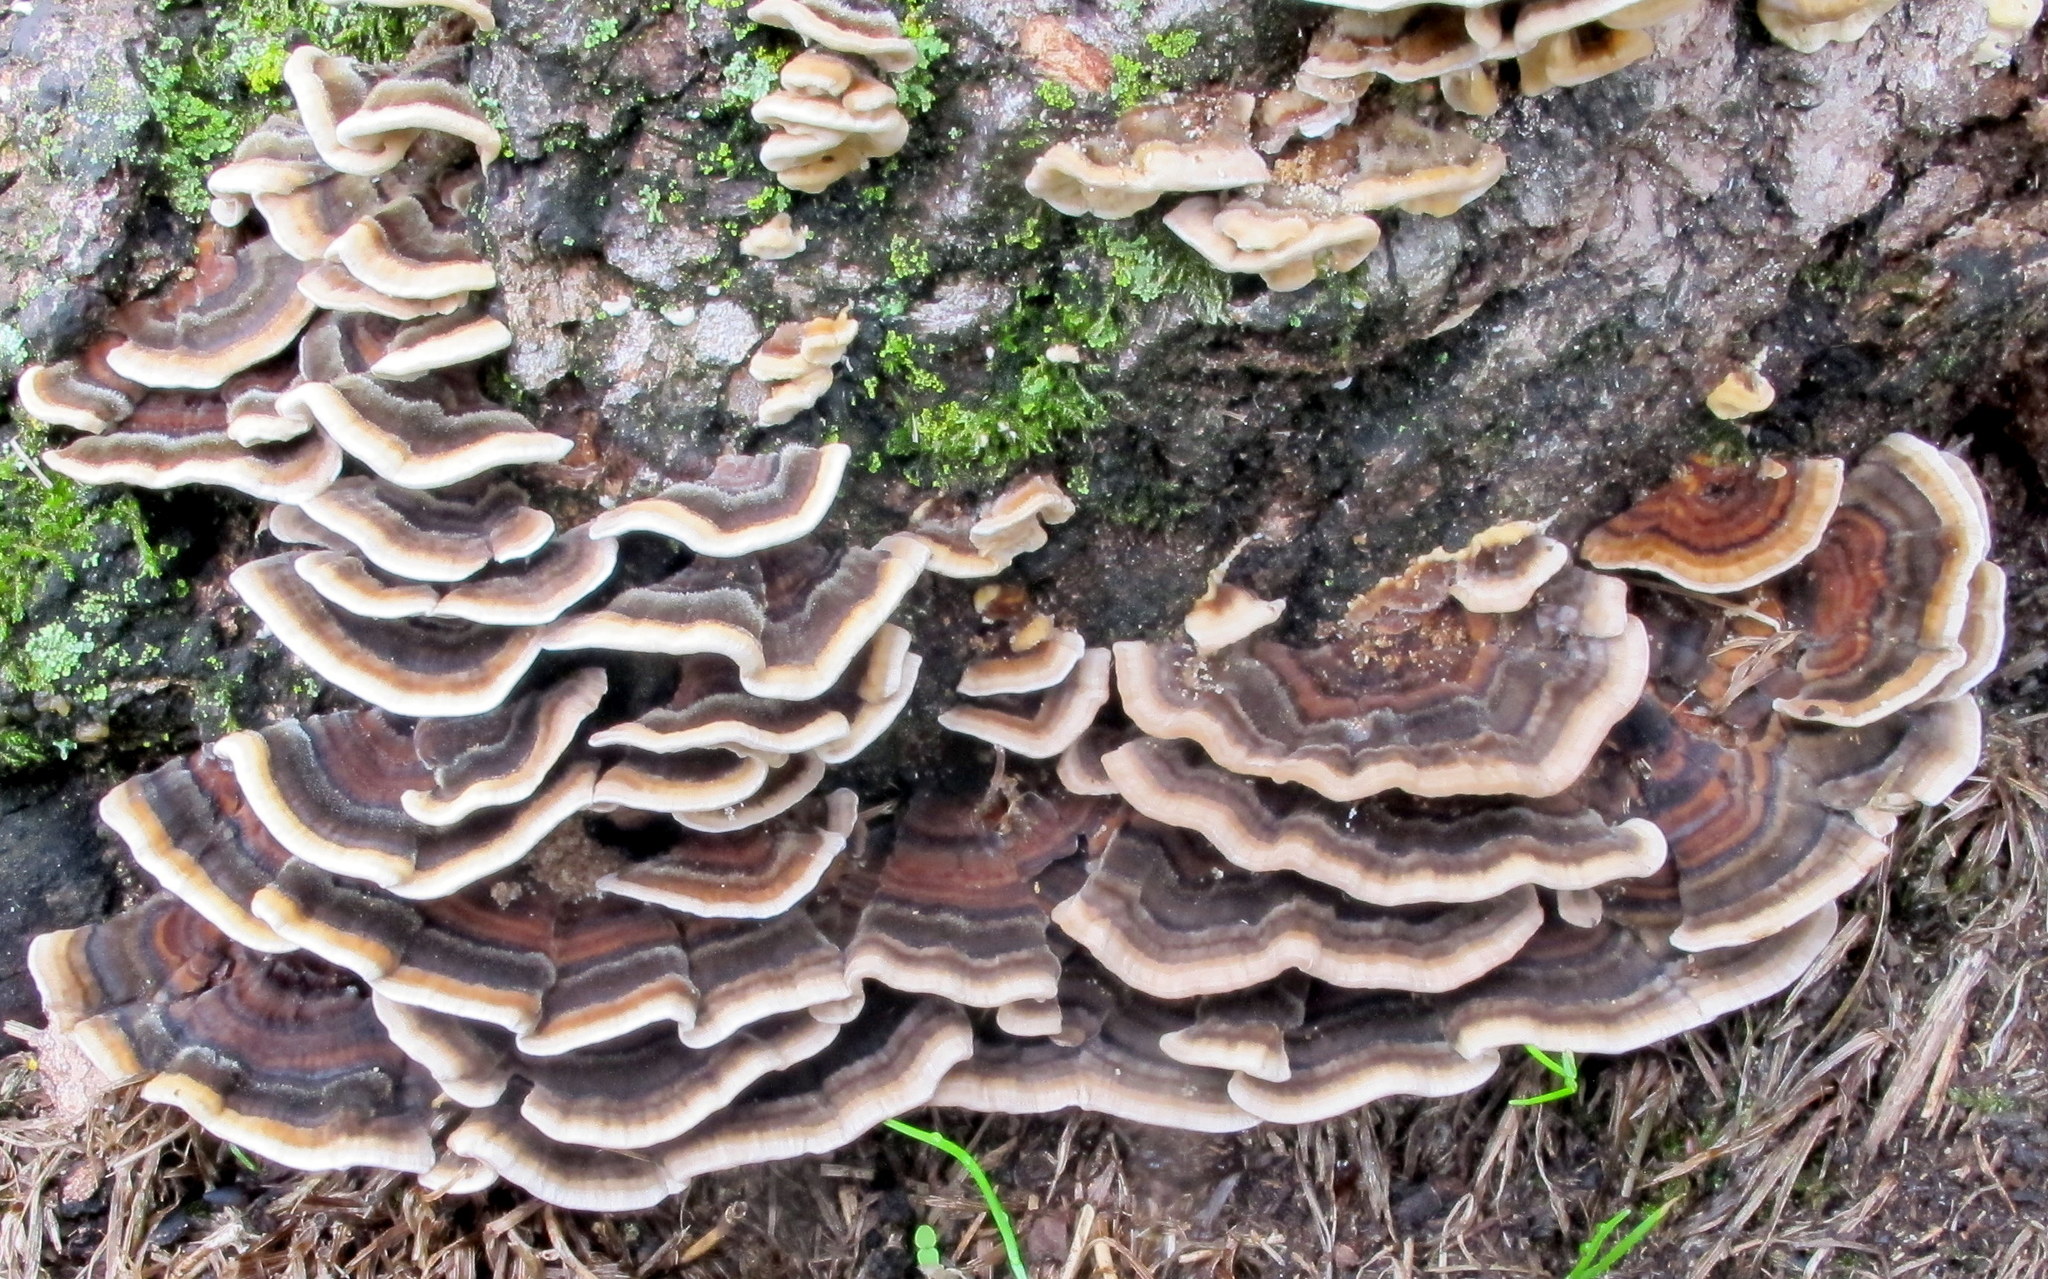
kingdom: Fungi
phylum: Basidiomycota
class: Agaricomycetes
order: Polyporales
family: Polyporaceae
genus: Trametes
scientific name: Trametes versicolor
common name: Turkeytail
